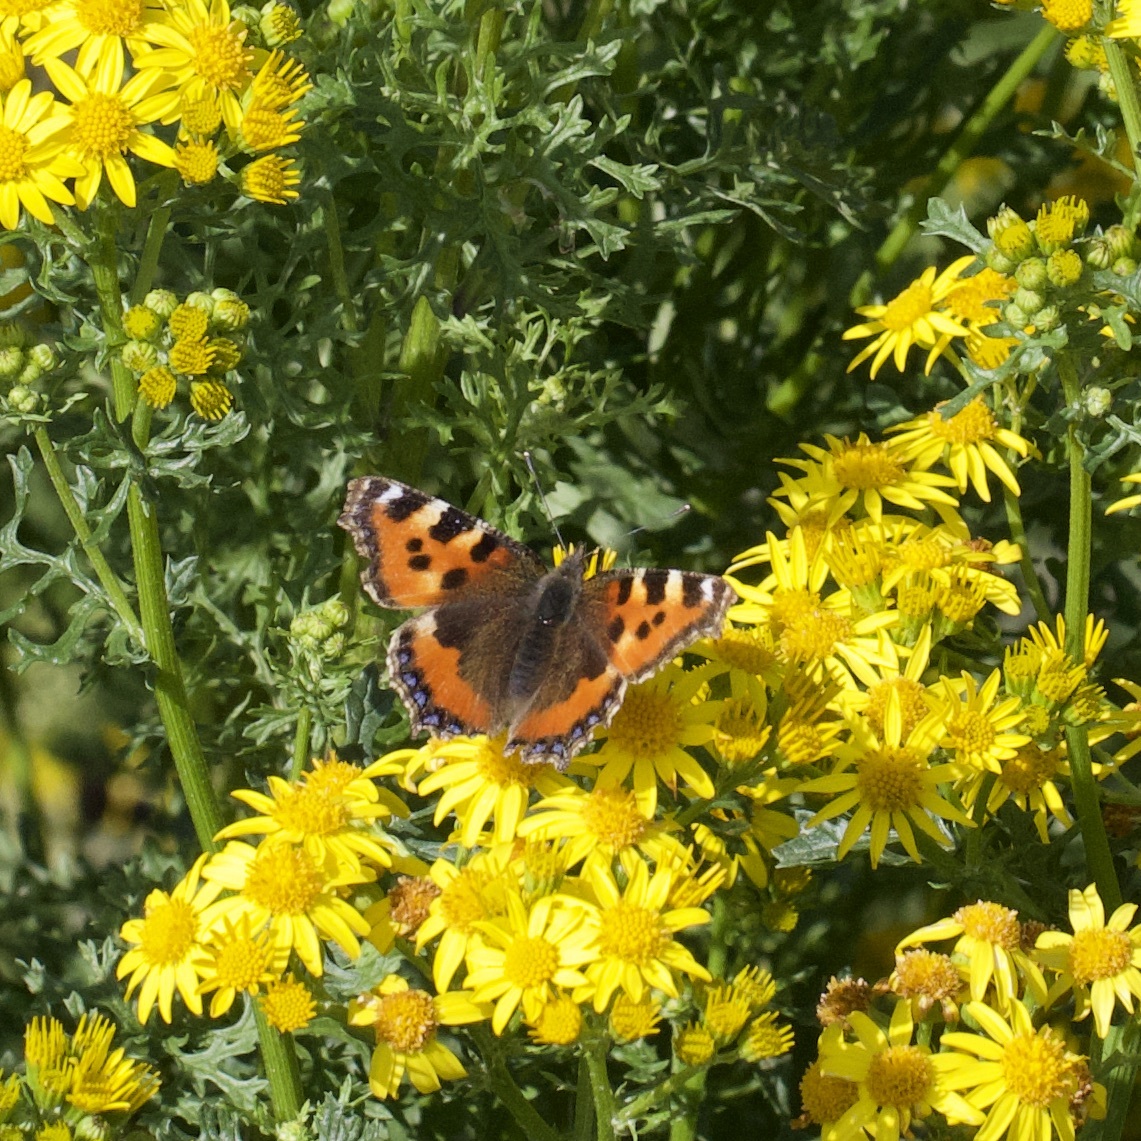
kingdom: Animalia
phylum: Arthropoda
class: Insecta
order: Lepidoptera
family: Nymphalidae
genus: Aglais
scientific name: Aglais urticae
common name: Small tortoiseshell
